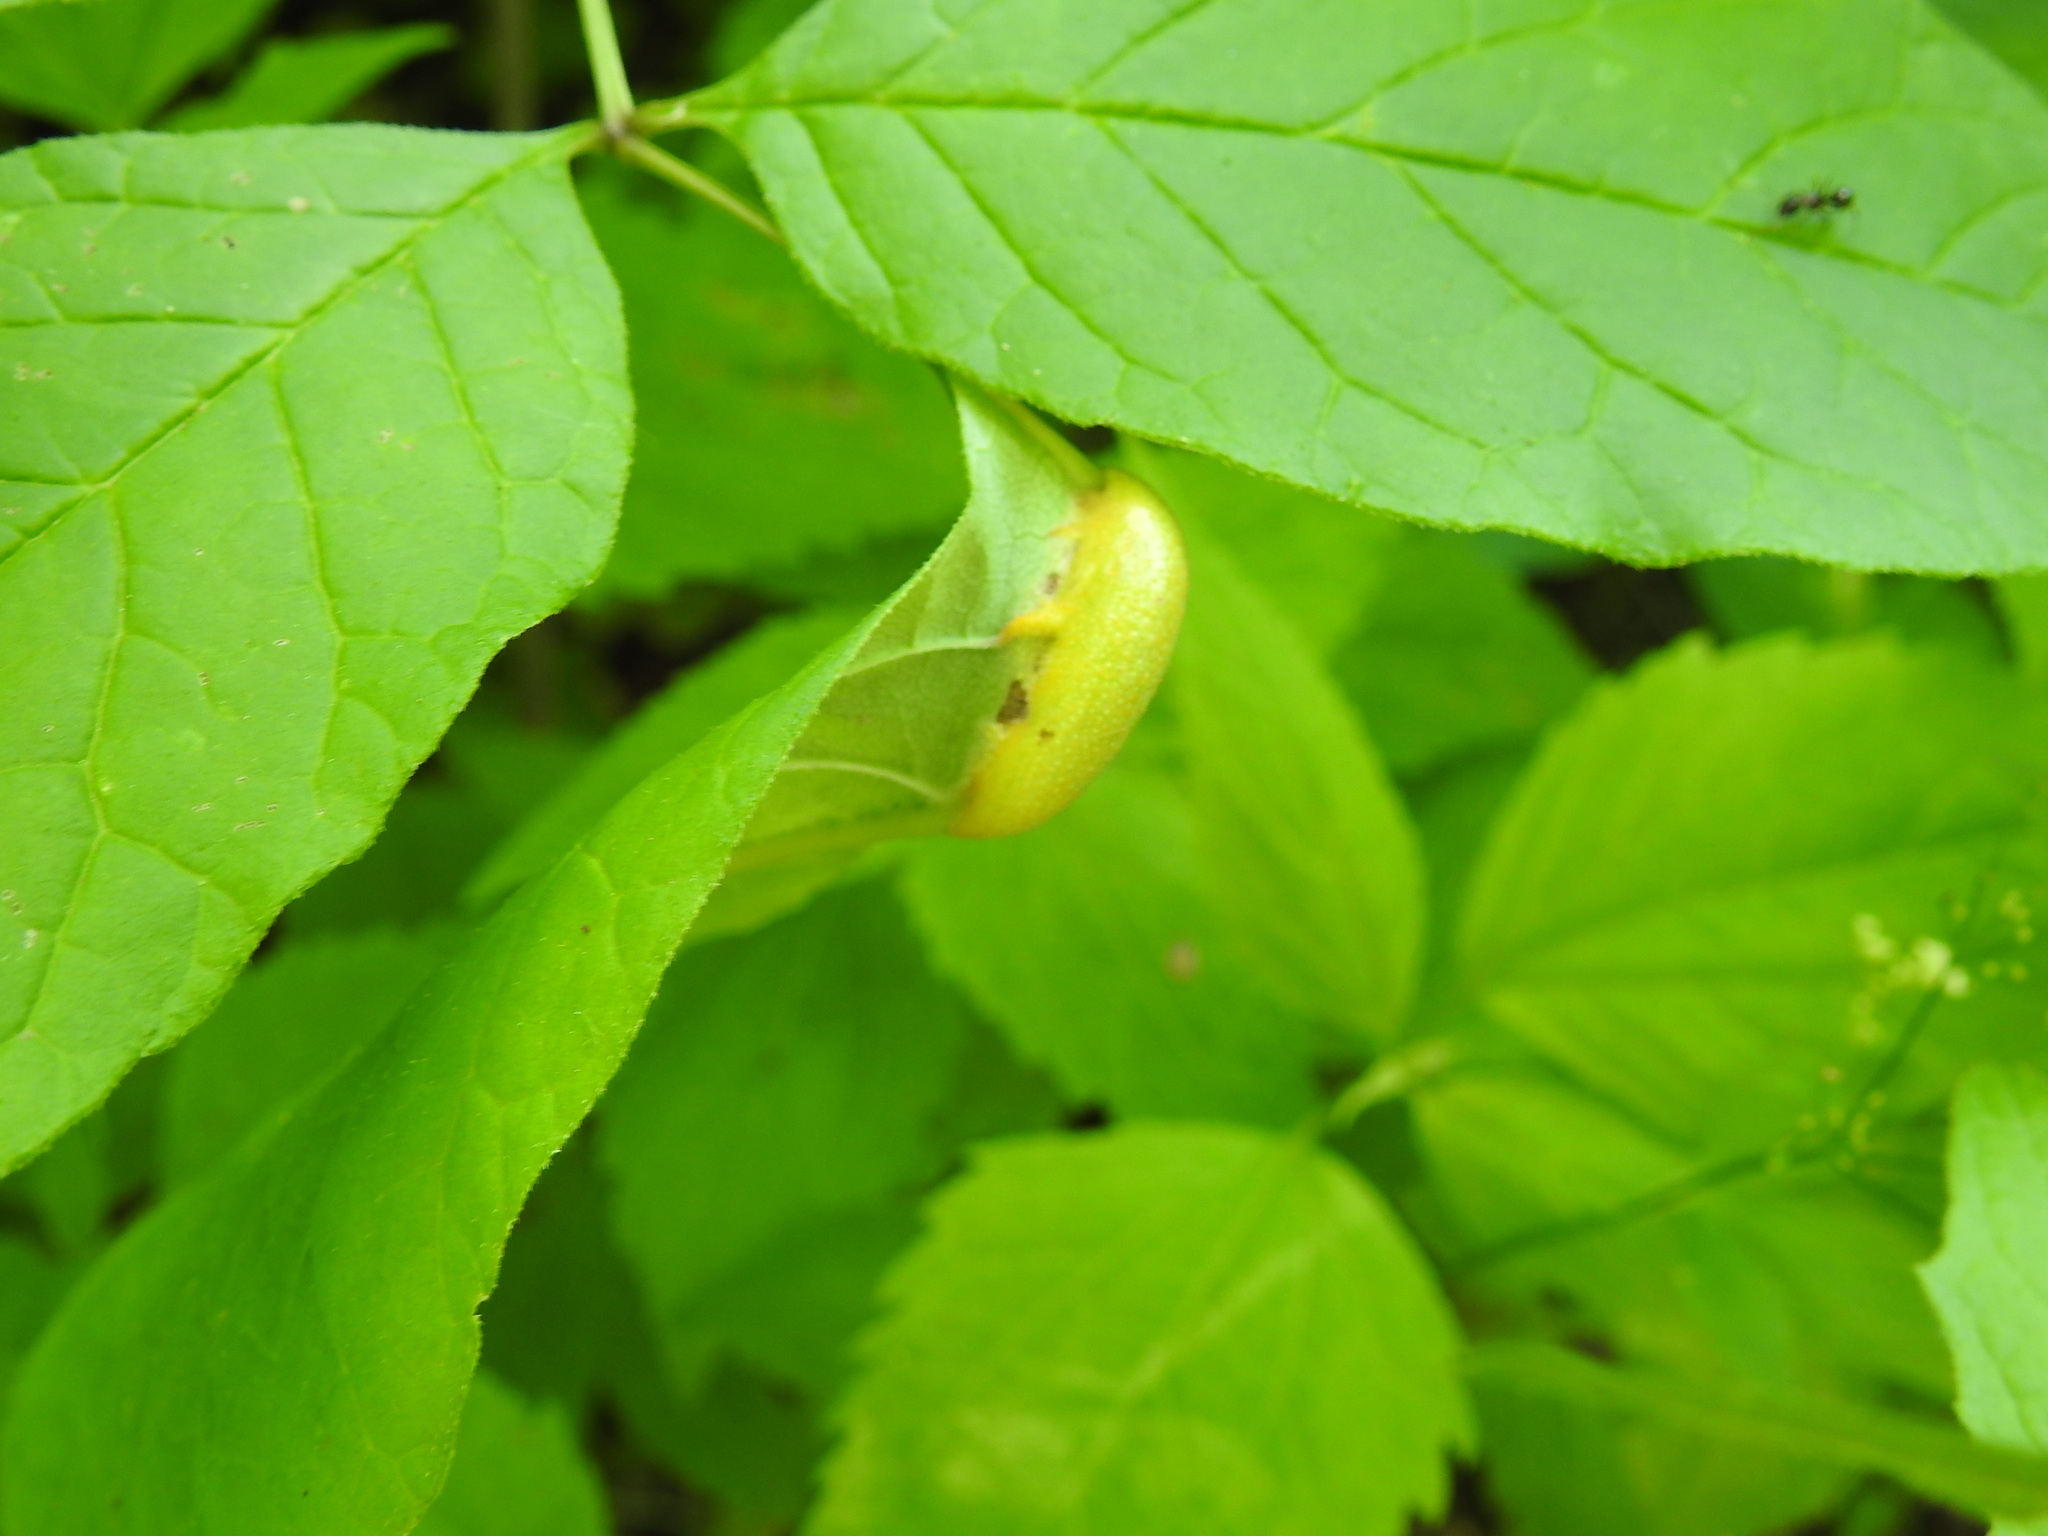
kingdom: Fungi
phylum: Basidiomycota
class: Pucciniomycetes
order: Pucciniales
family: Pucciniaceae
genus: Puccinia
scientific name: Puccinia sparganioidis
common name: Ash rust
